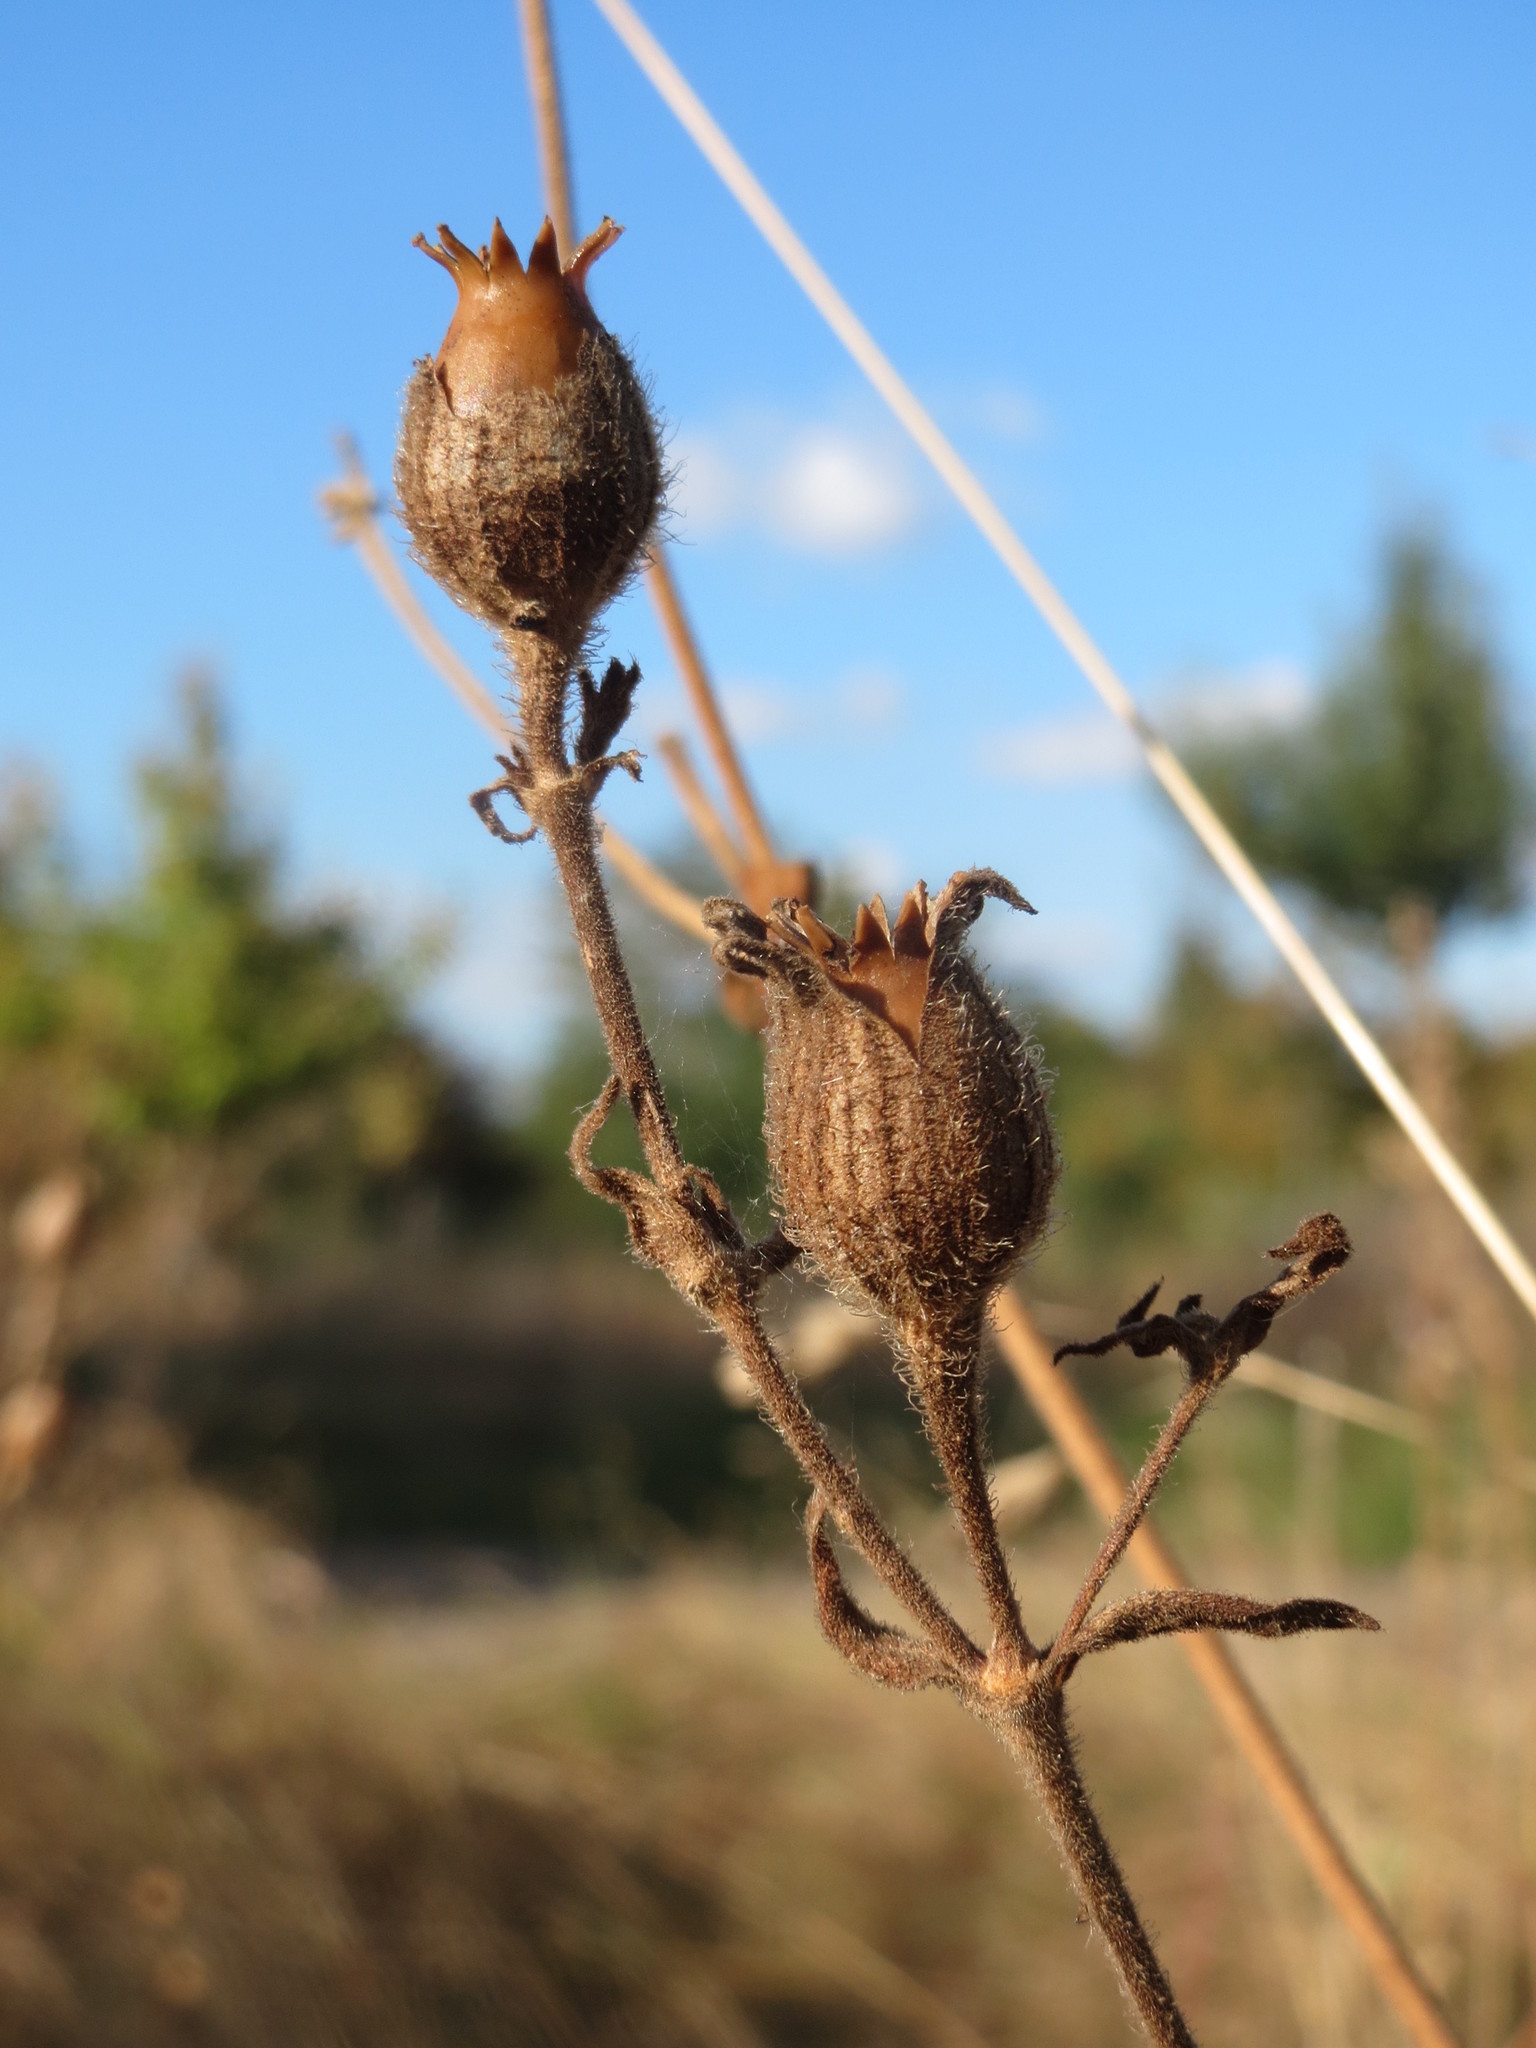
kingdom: Plantae
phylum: Tracheophyta
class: Magnoliopsida
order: Caryophyllales
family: Caryophyllaceae
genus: Silene
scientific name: Silene latifolia
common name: White campion
